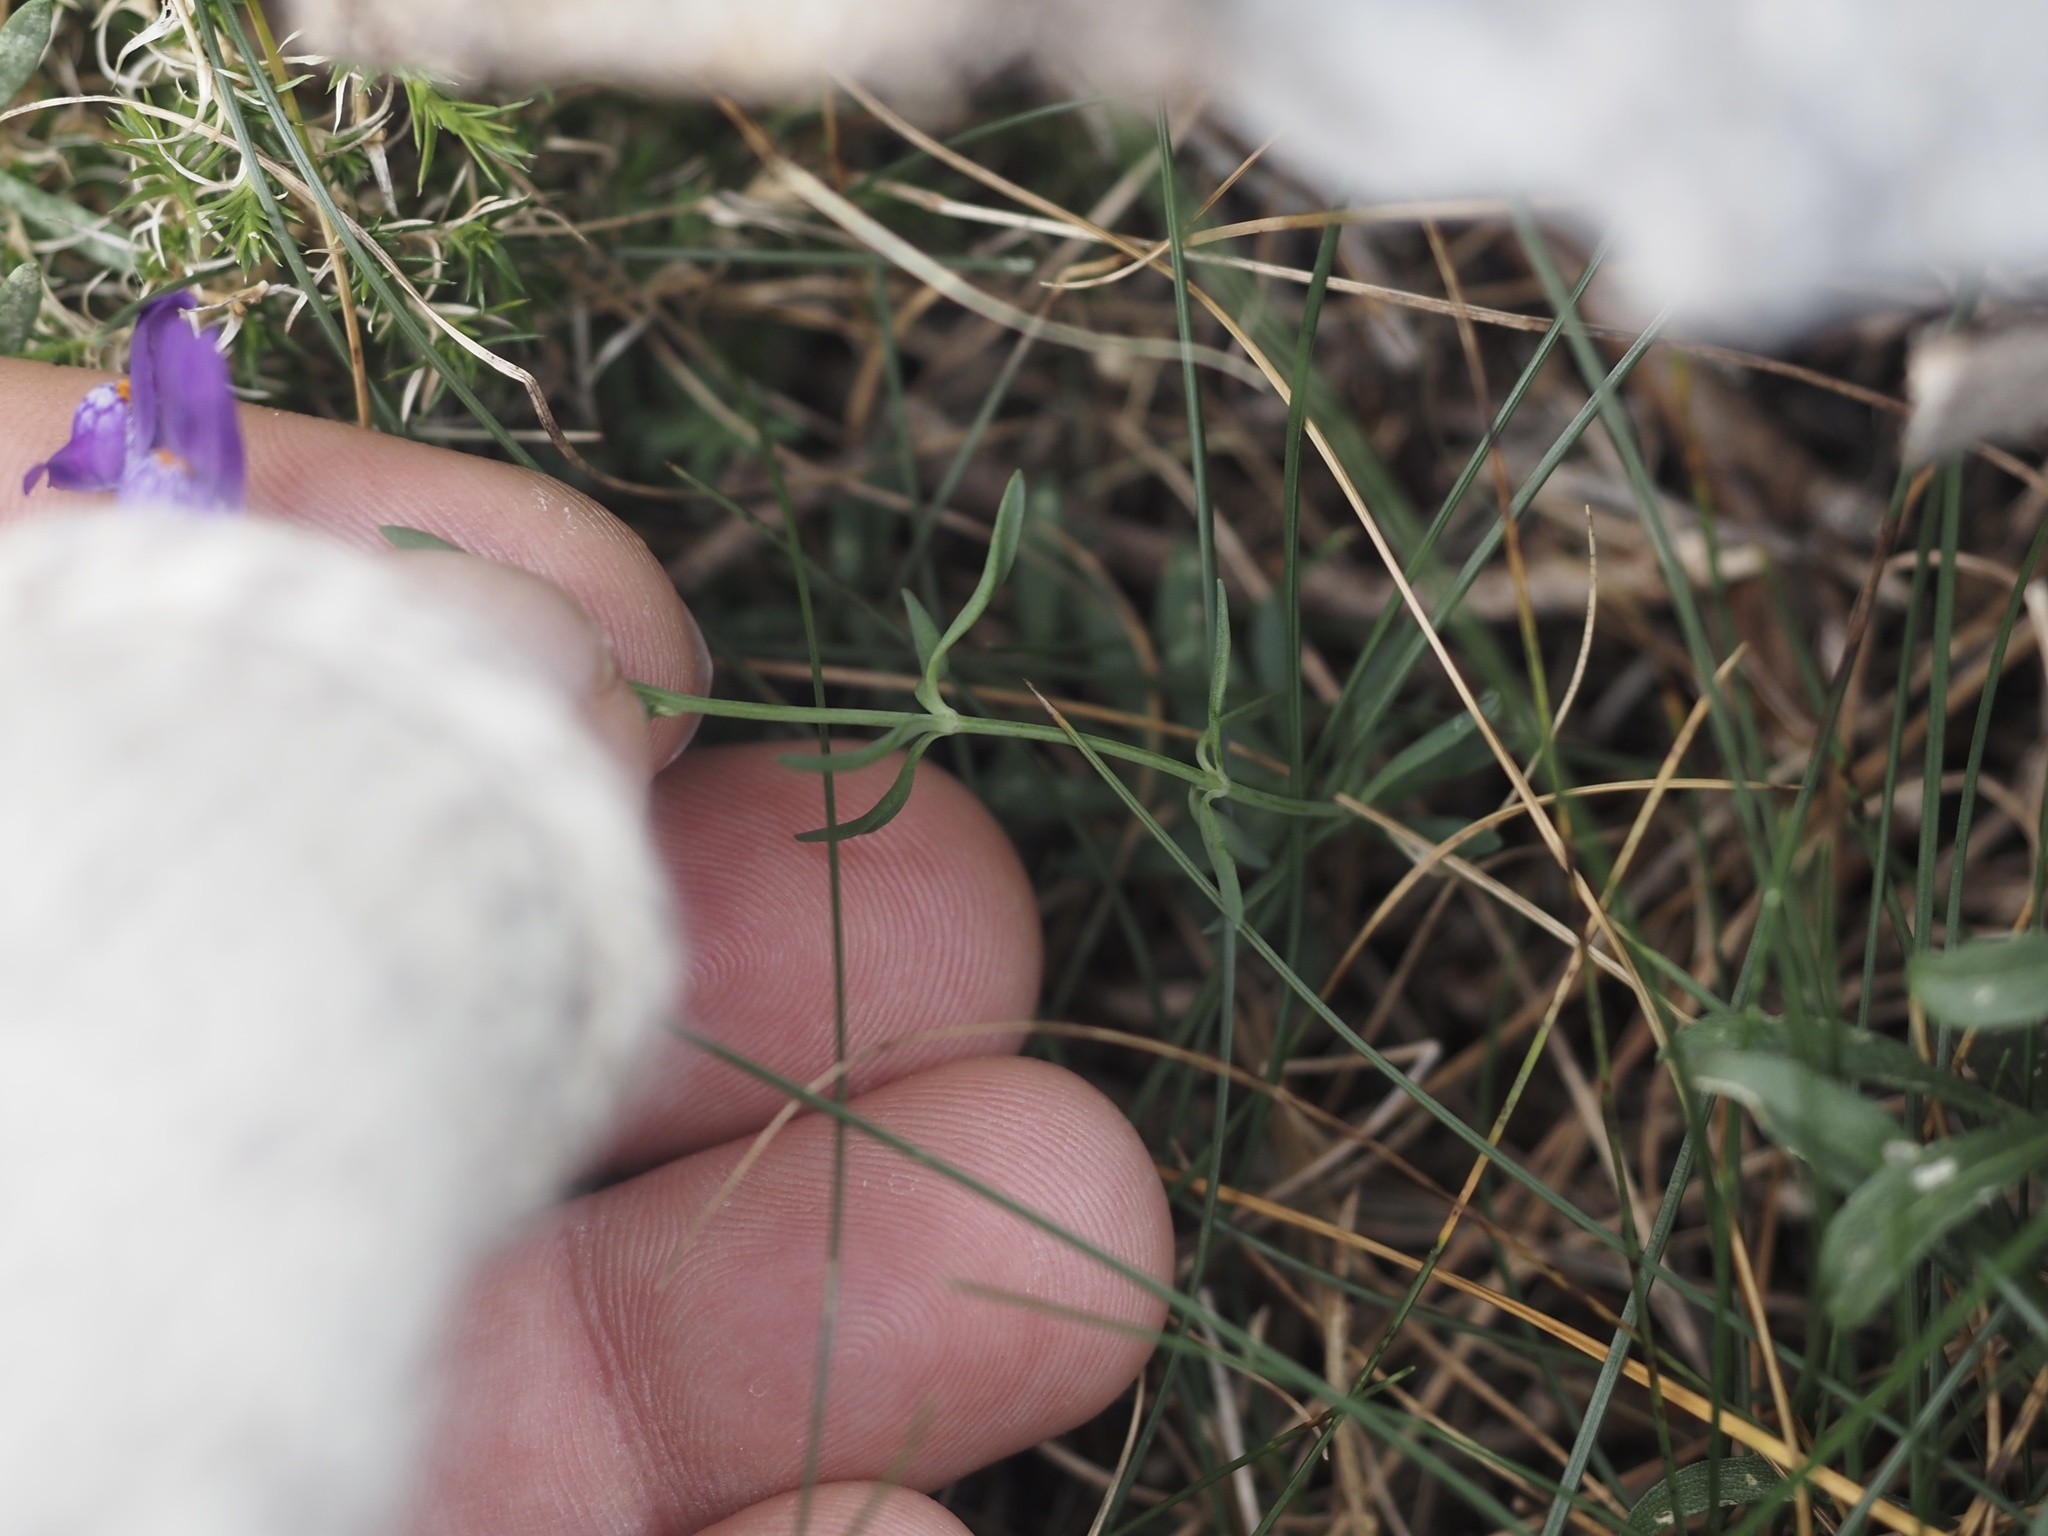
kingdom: Plantae
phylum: Tracheophyta
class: Magnoliopsida
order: Lamiales
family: Plantaginaceae
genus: Linaria
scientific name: Linaria alpina
